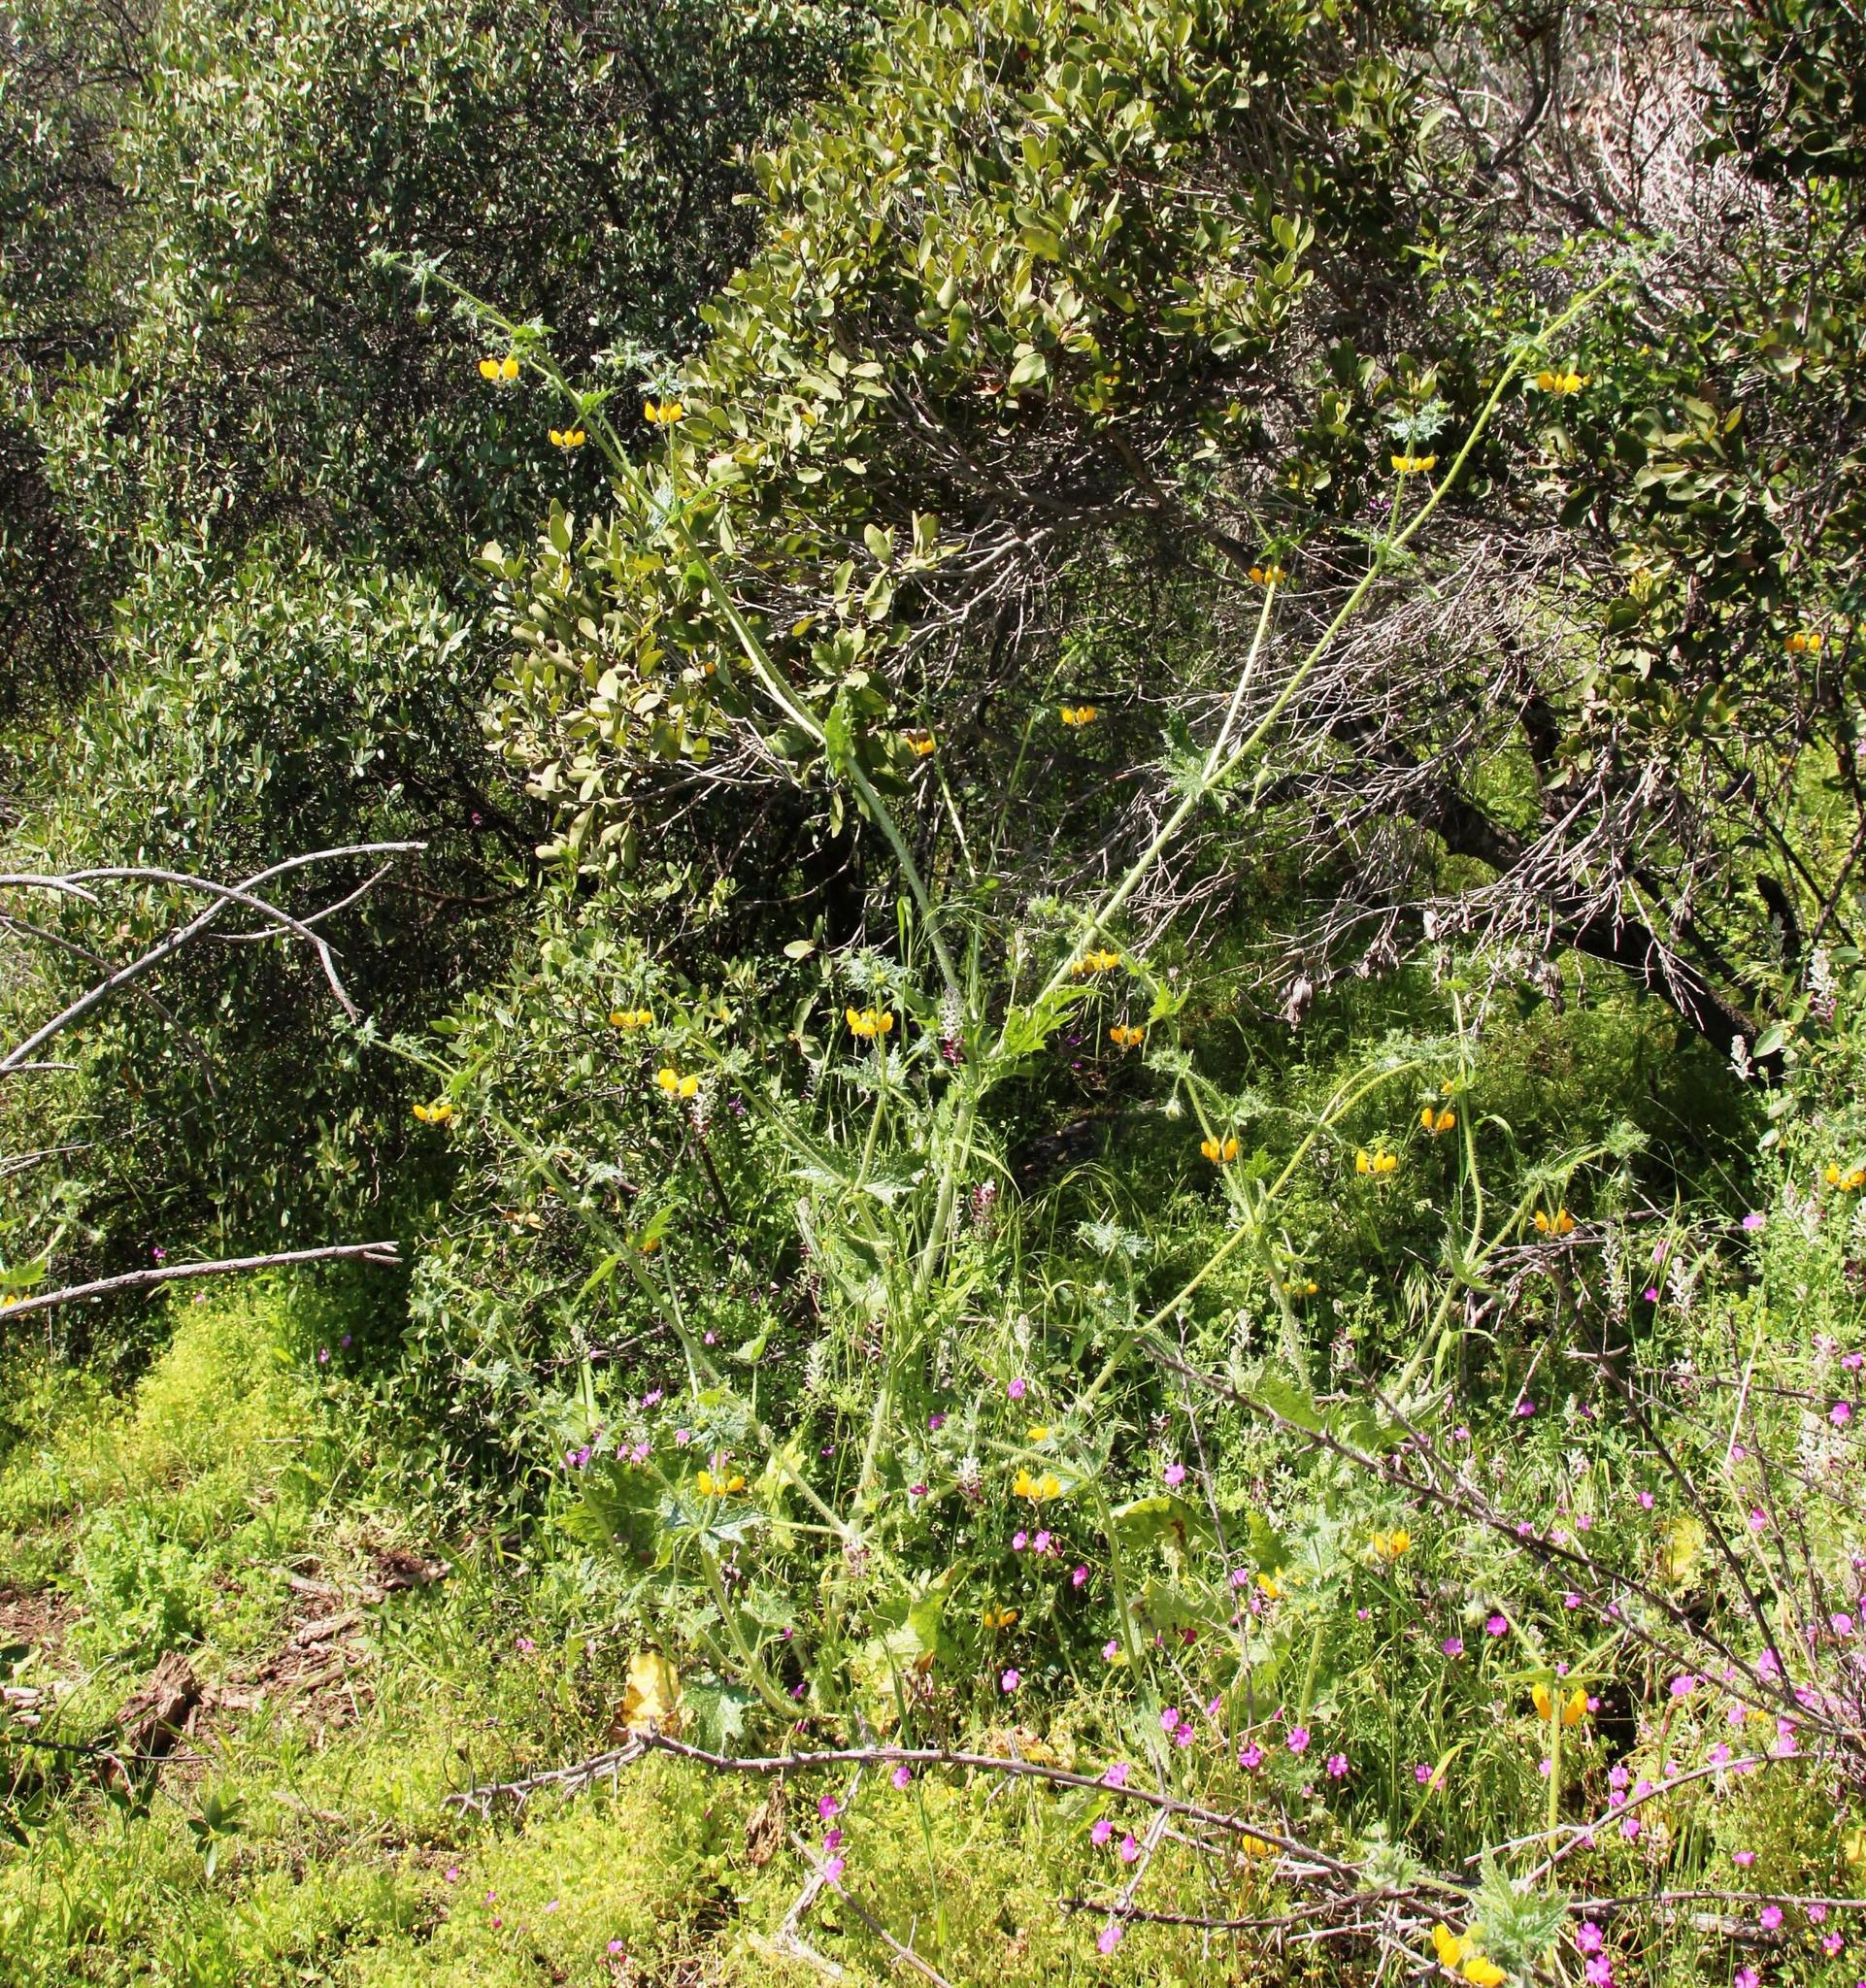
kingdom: Plantae
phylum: Tracheophyta
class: Magnoliopsida
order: Cornales
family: Loasaceae
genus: Loasa
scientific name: Loasa placei
